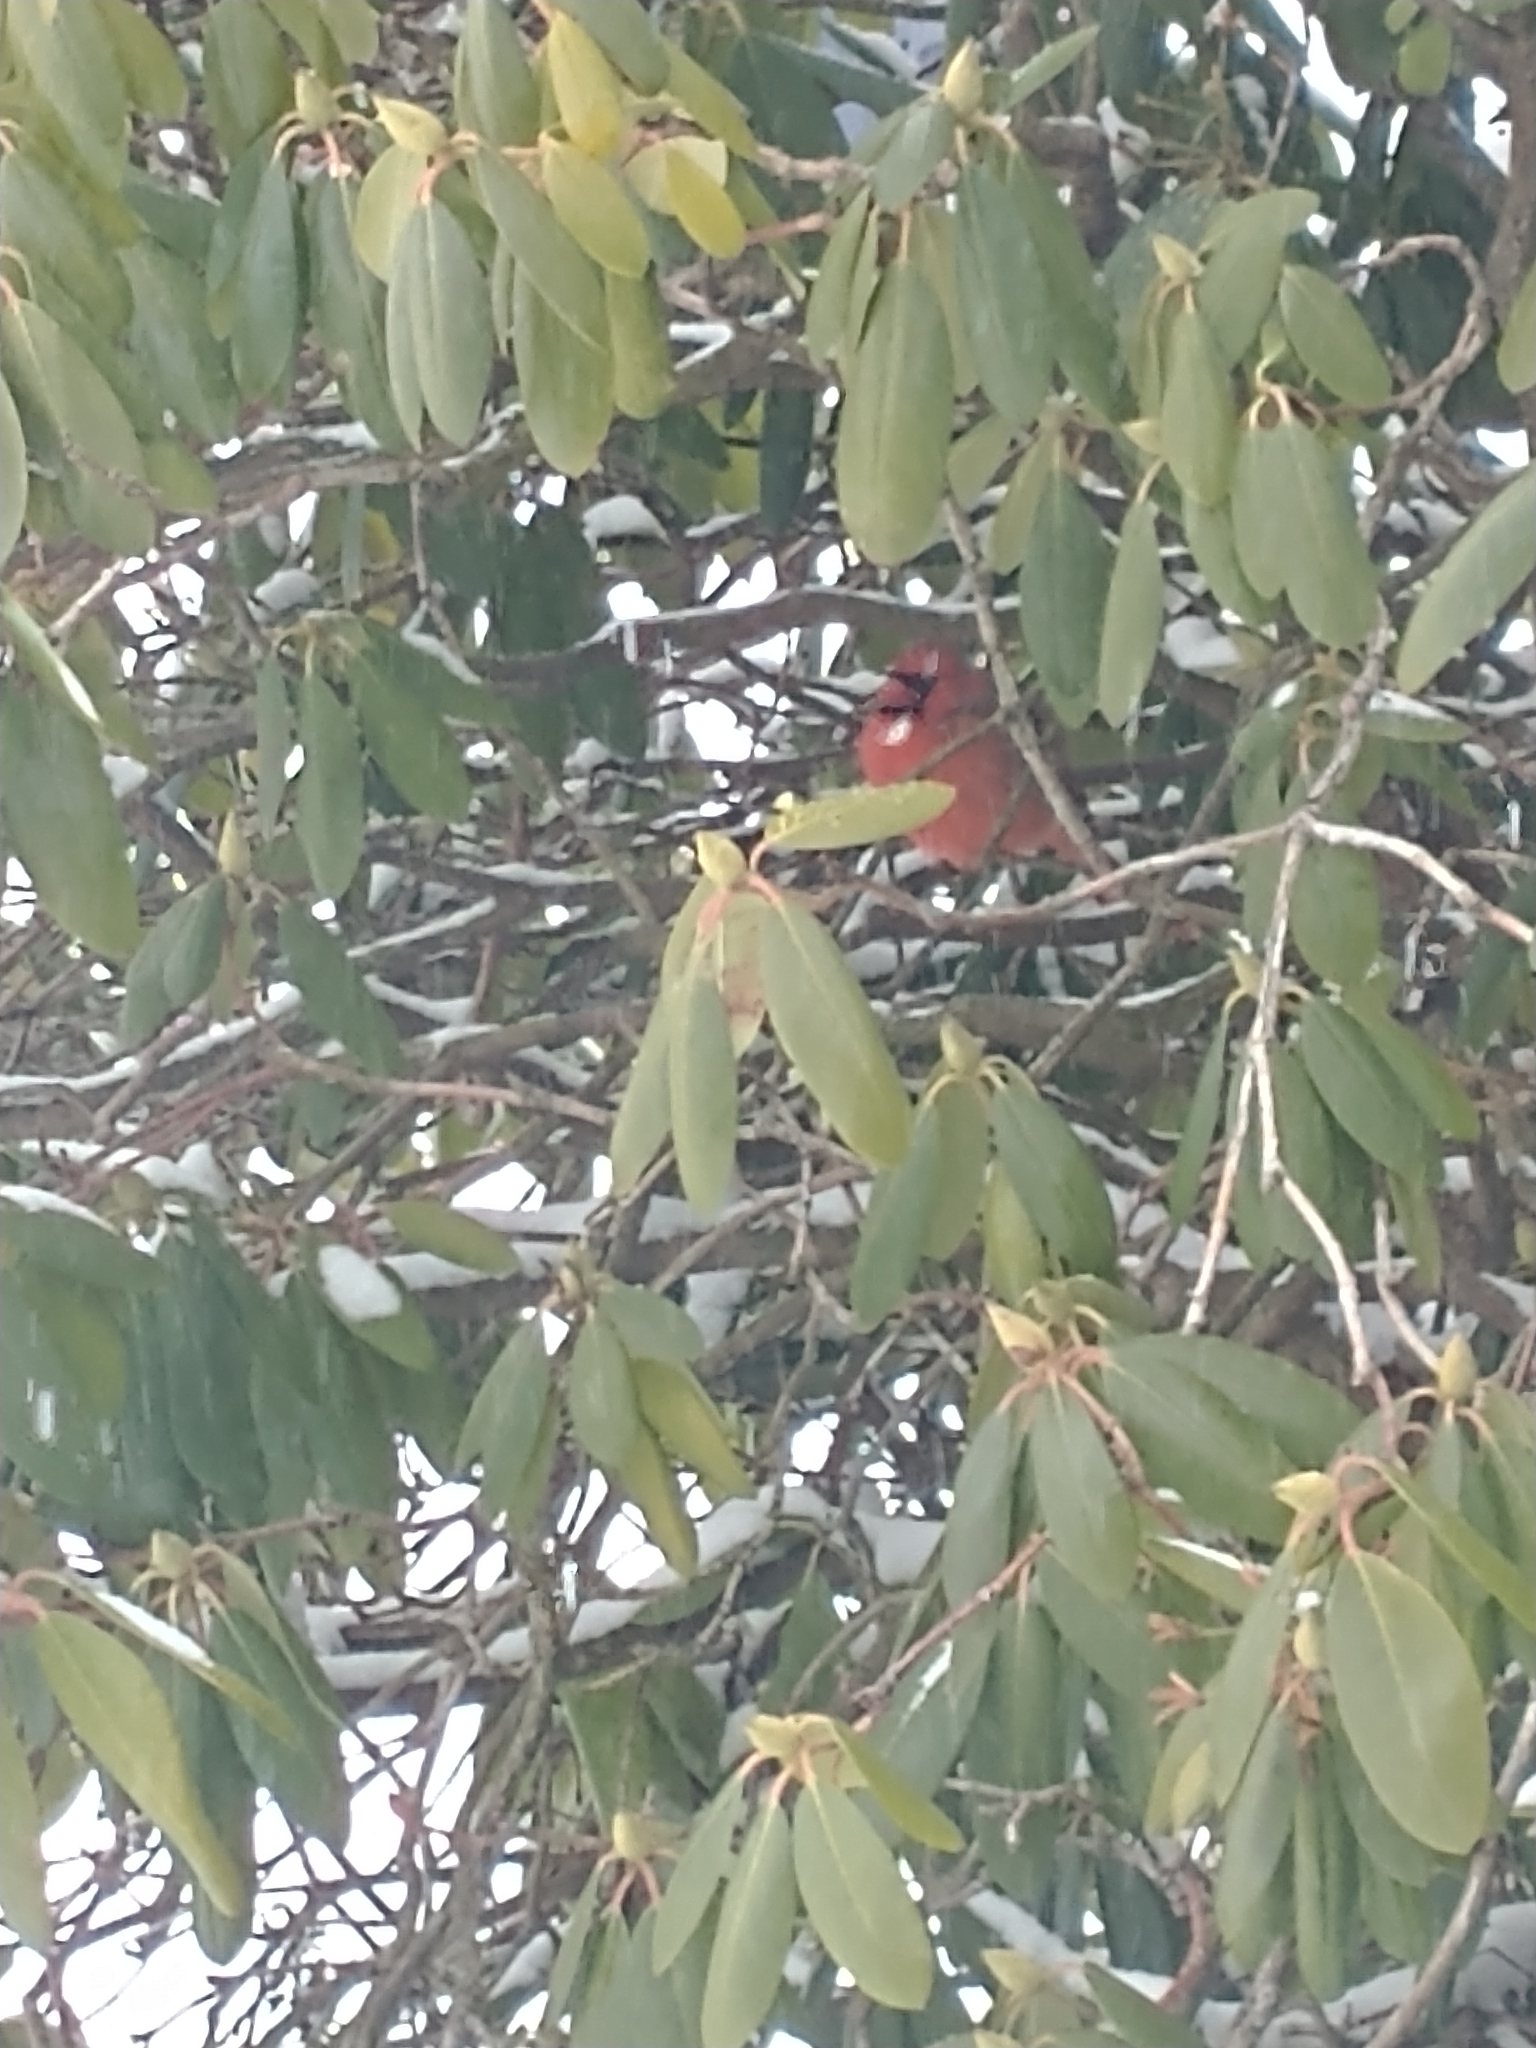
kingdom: Animalia
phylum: Chordata
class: Aves
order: Passeriformes
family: Cardinalidae
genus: Cardinalis
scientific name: Cardinalis cardinalis
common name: Northern cardinal
